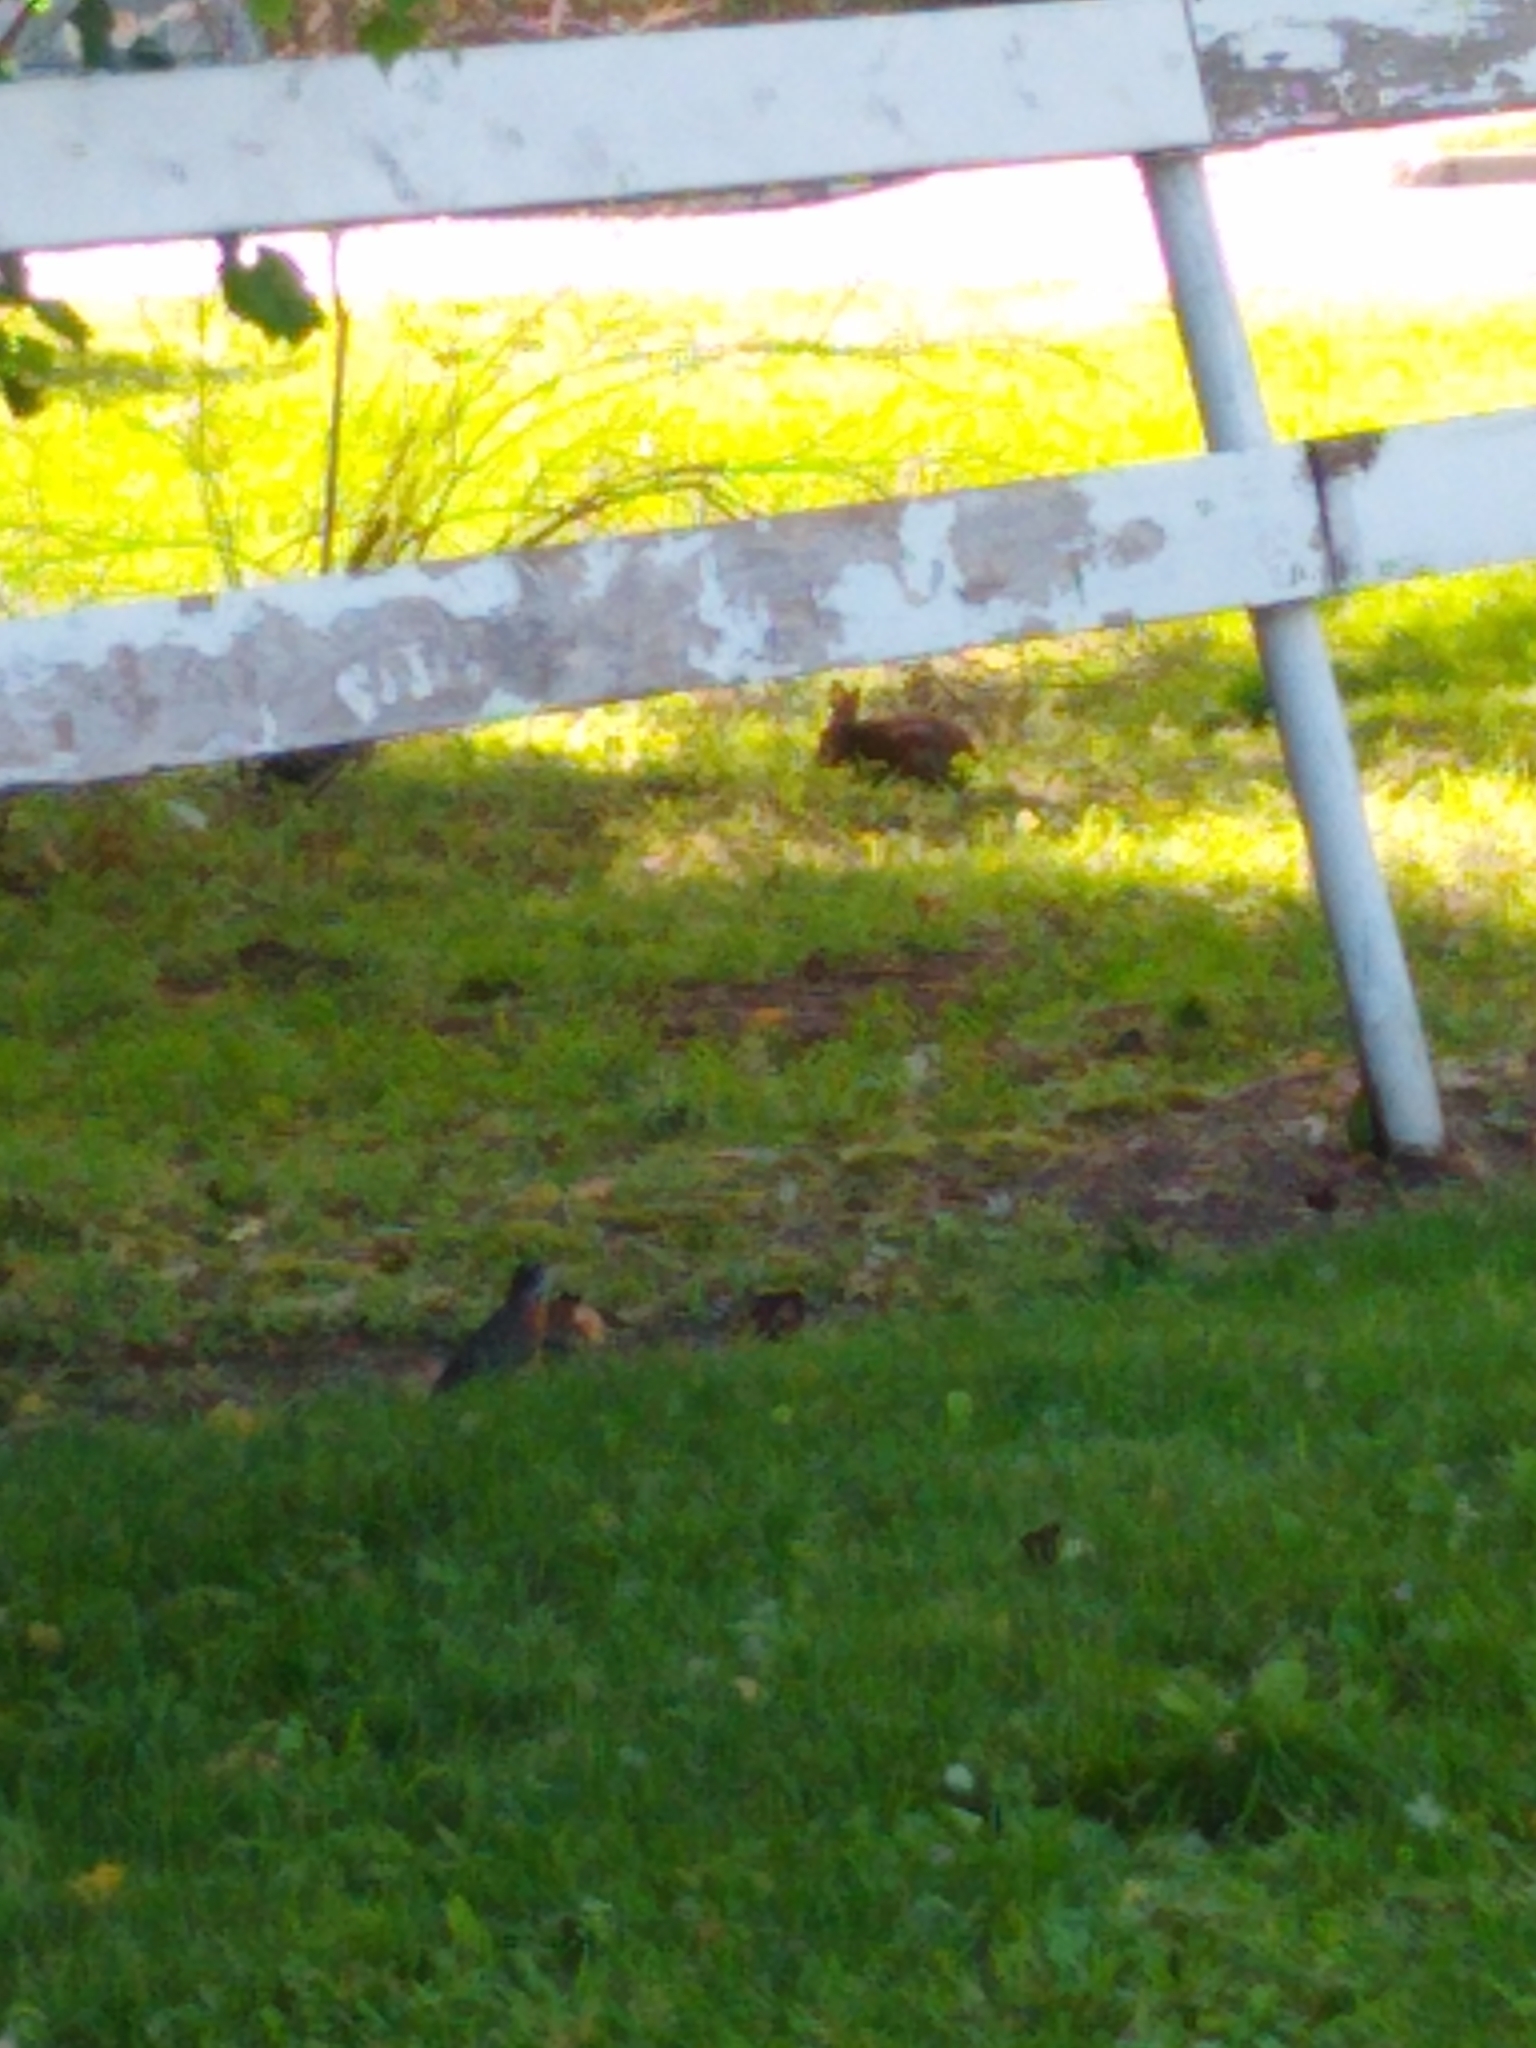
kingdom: Animalia
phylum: Chordata
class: Mammalia
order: Lagomorpha
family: Leporidae
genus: Sylvilagus
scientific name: Sylvilagus floridanus
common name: Eastern cottontail
